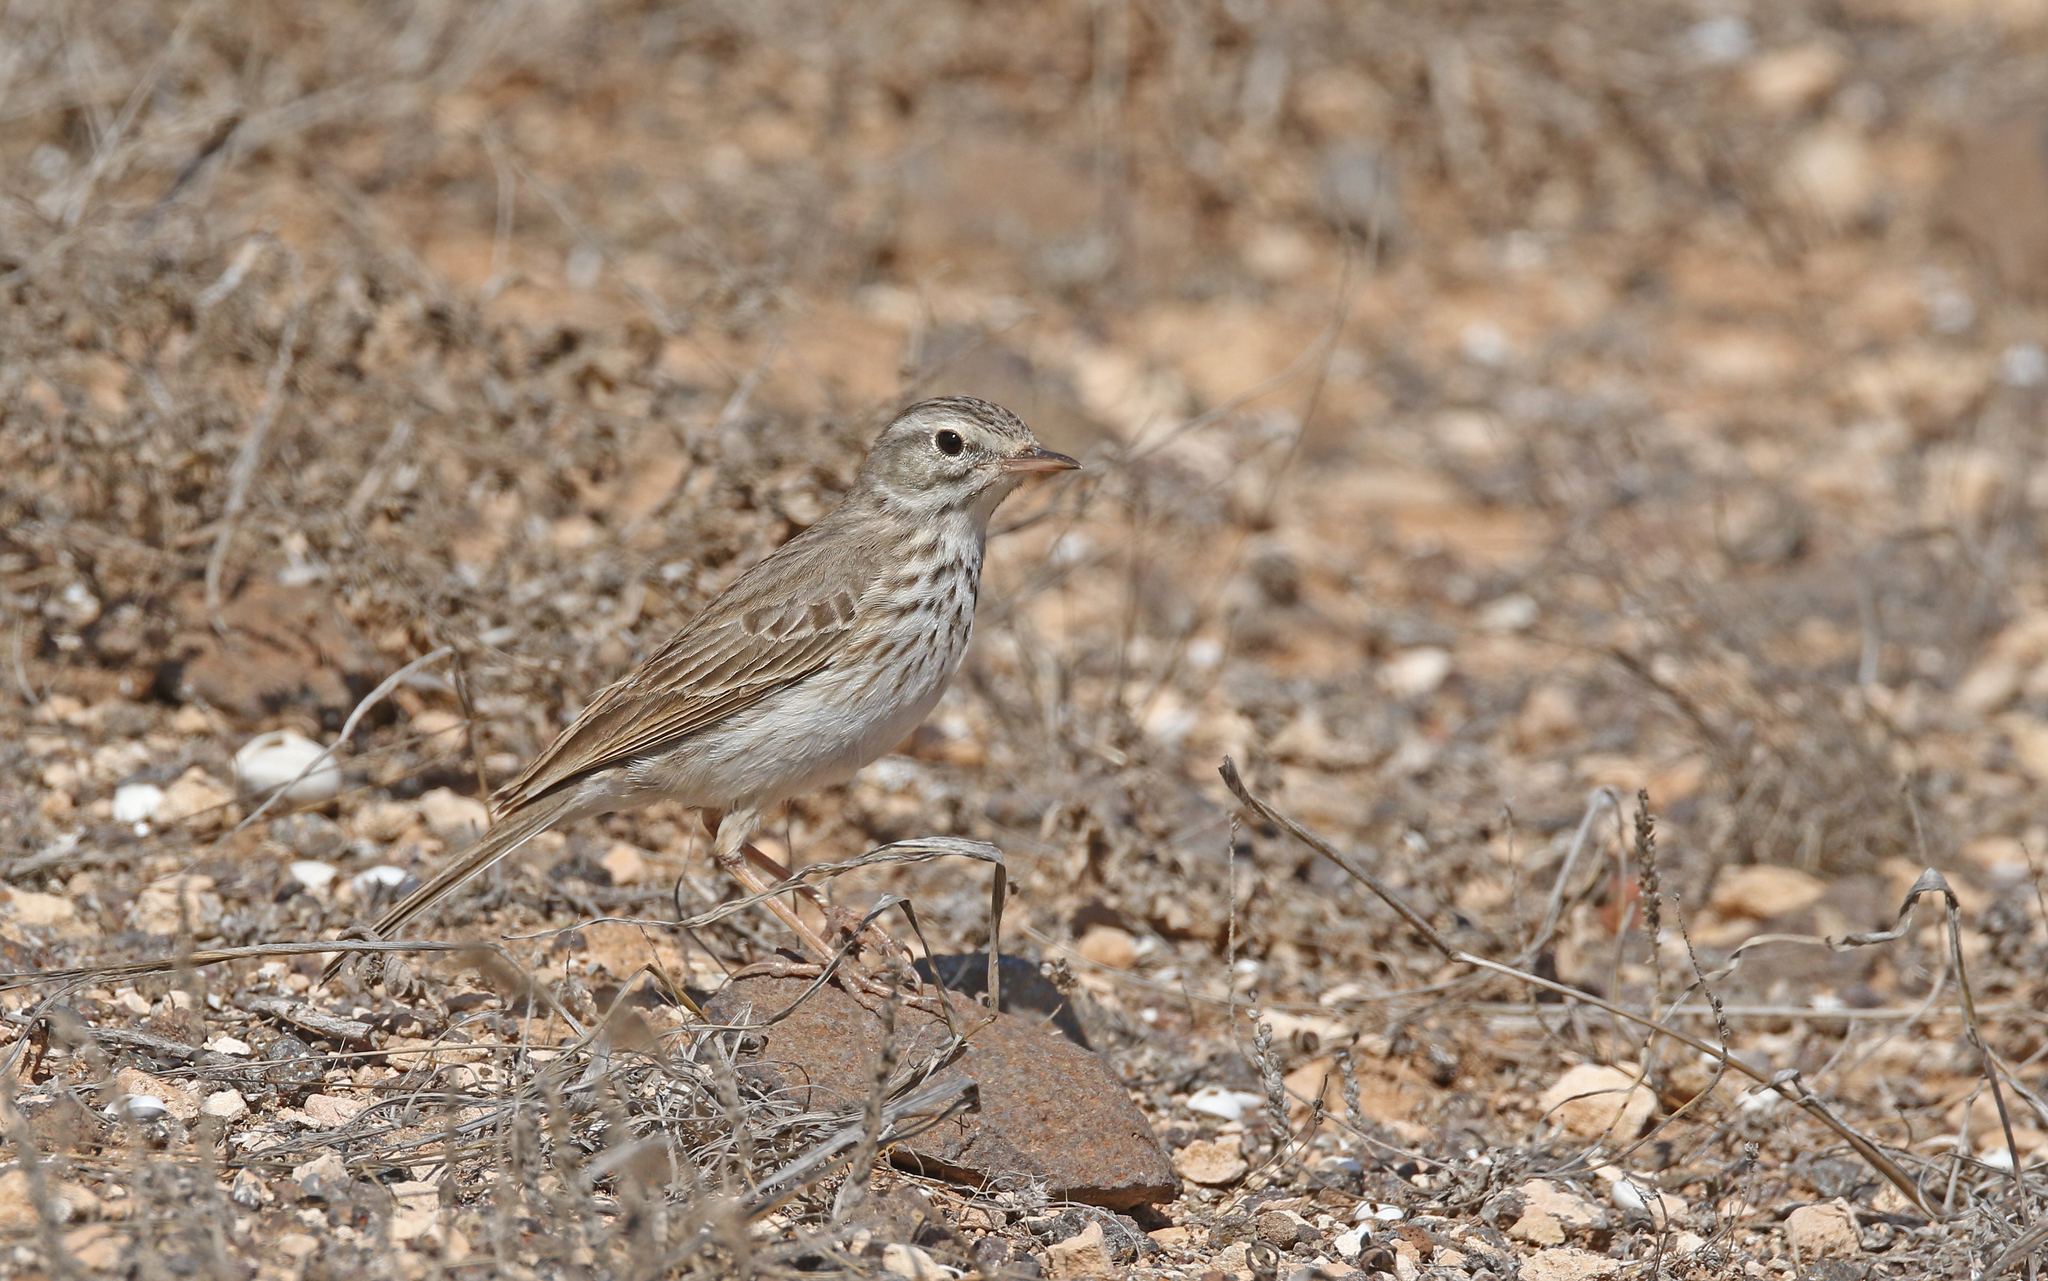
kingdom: Animalia
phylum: Chordata
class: Aves
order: Passeriformes
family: Motacillidae
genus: Anthus
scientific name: Anthus berthelotii
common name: Berthelot's pipit
